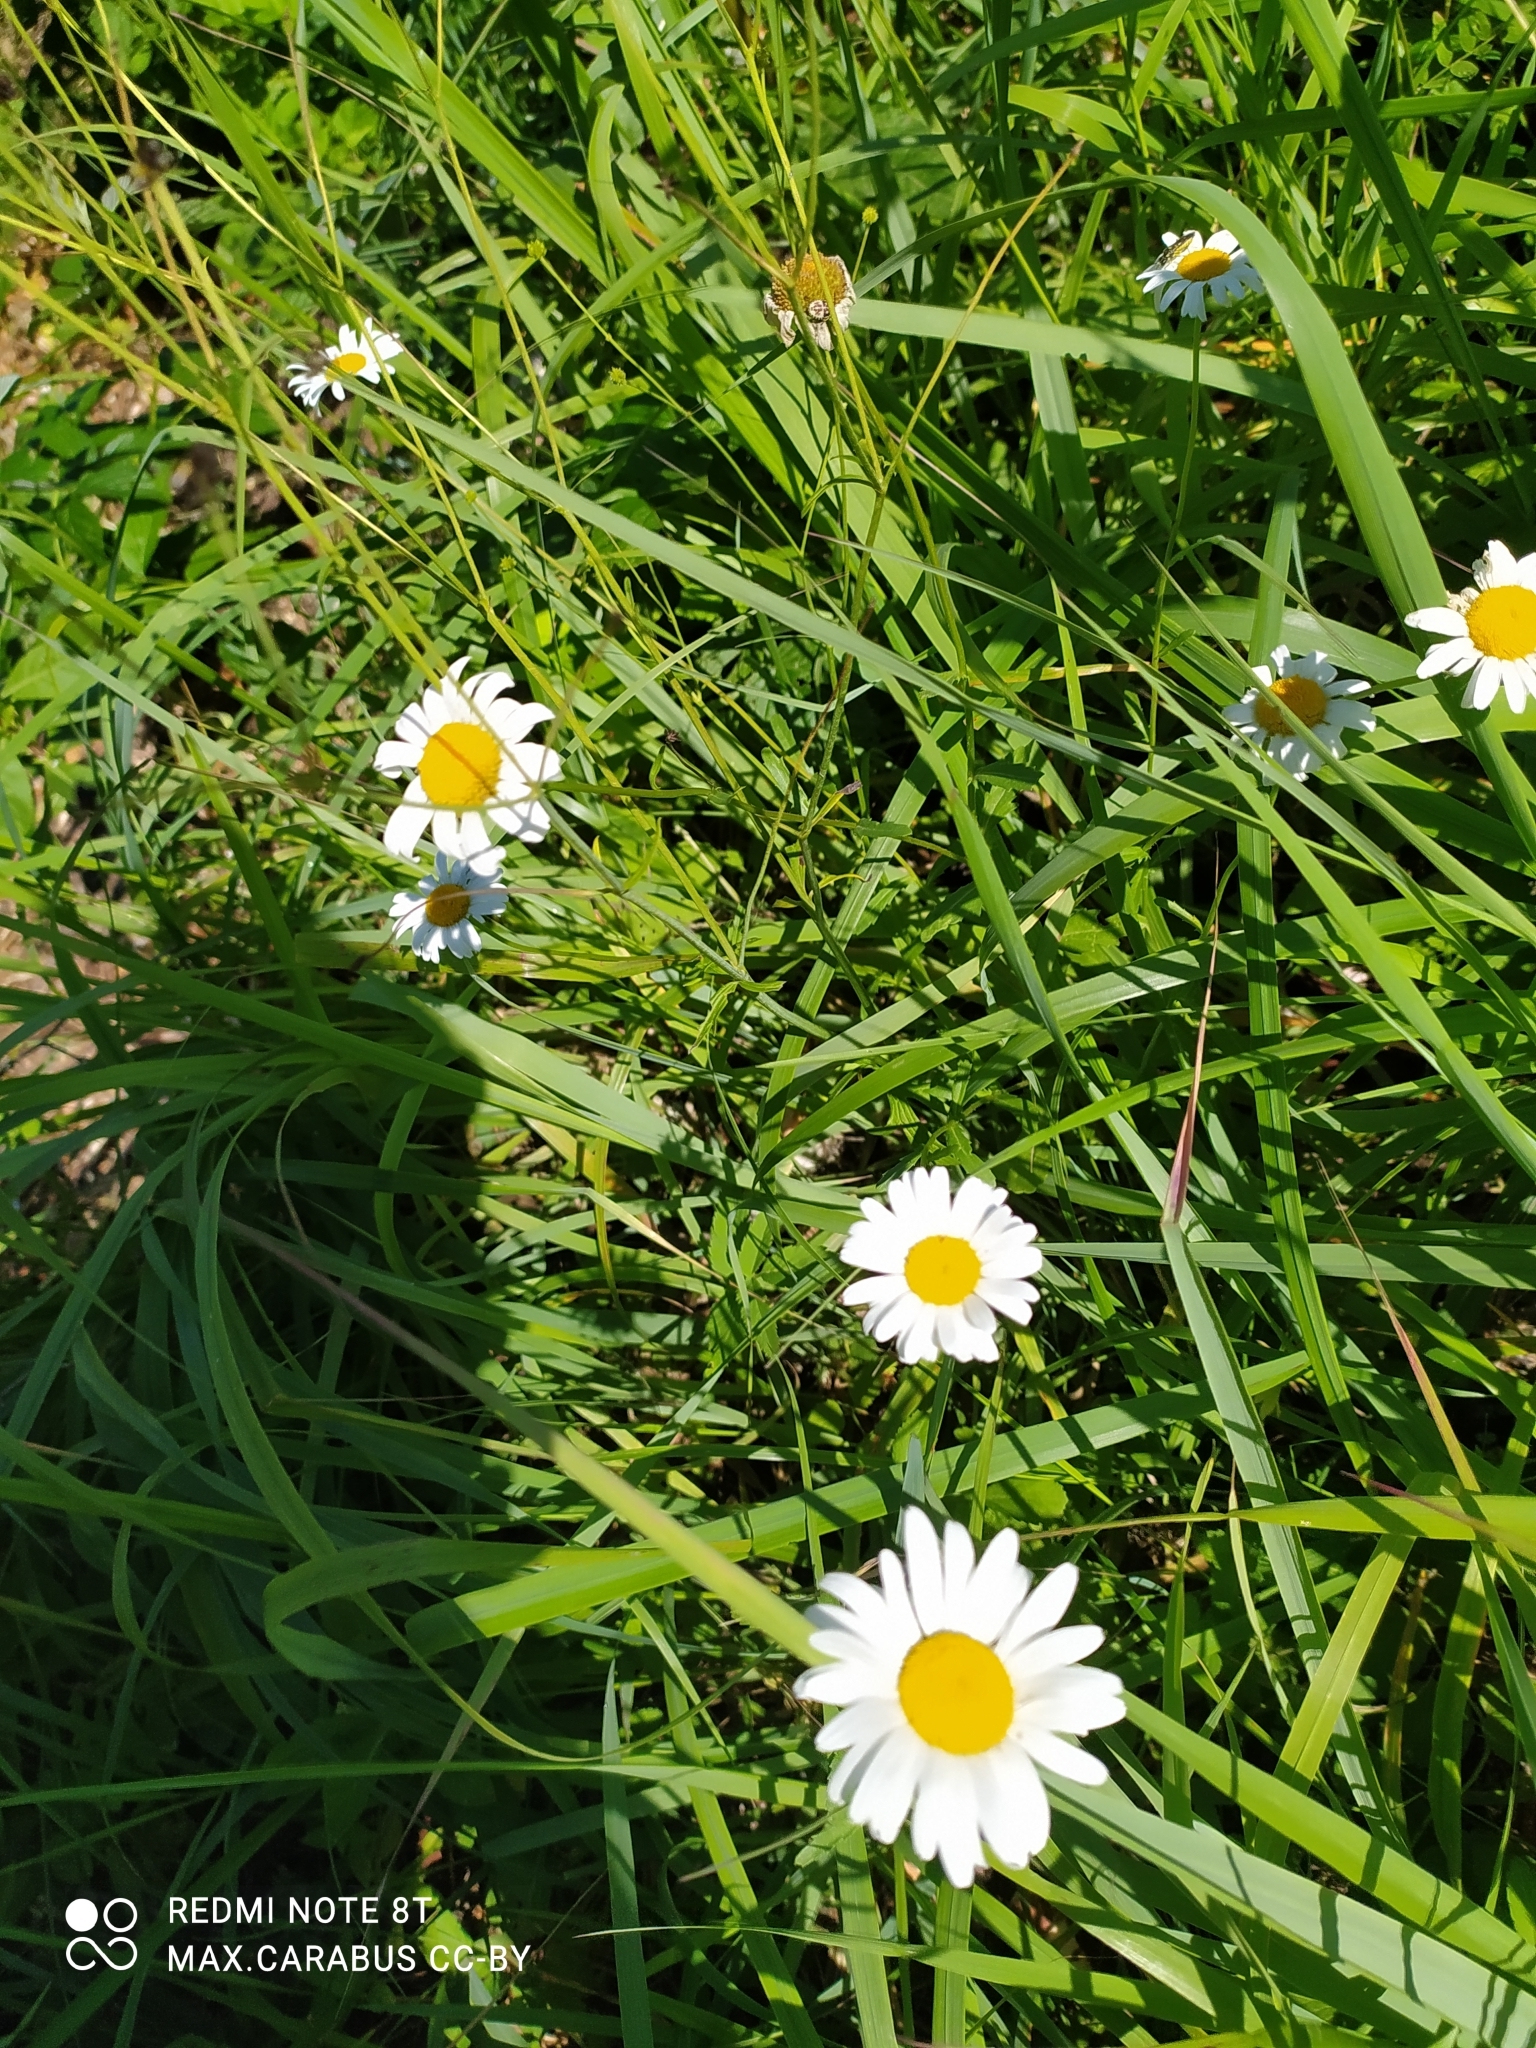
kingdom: Plantae
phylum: Tracheophyta
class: Magnoliopsida
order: Asterales
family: Asteraceae
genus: Leucanthemum
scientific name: Leucanthemum vulgare
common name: Oxeye daisy
